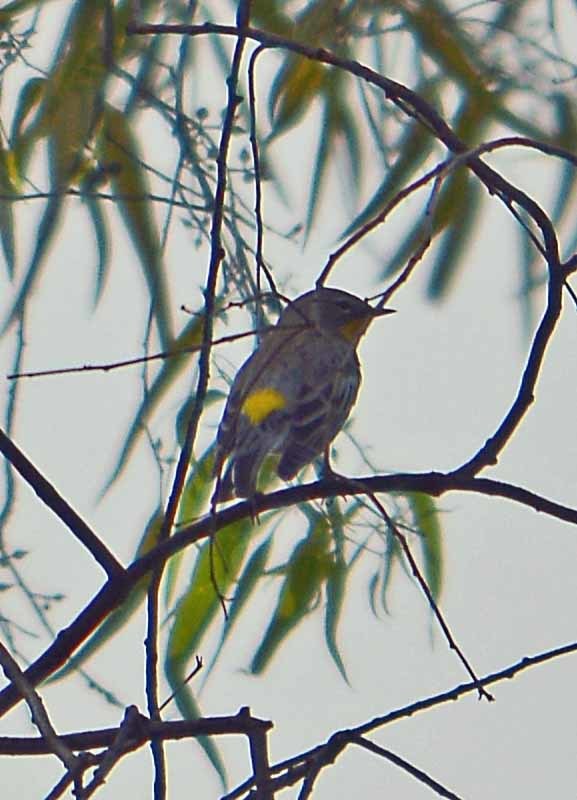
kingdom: Animalia
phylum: Chordata
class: Aves
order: Passeriformes
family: Parulidae
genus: Setophaga
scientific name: Setophaga coronata
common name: Myrtle warbler
